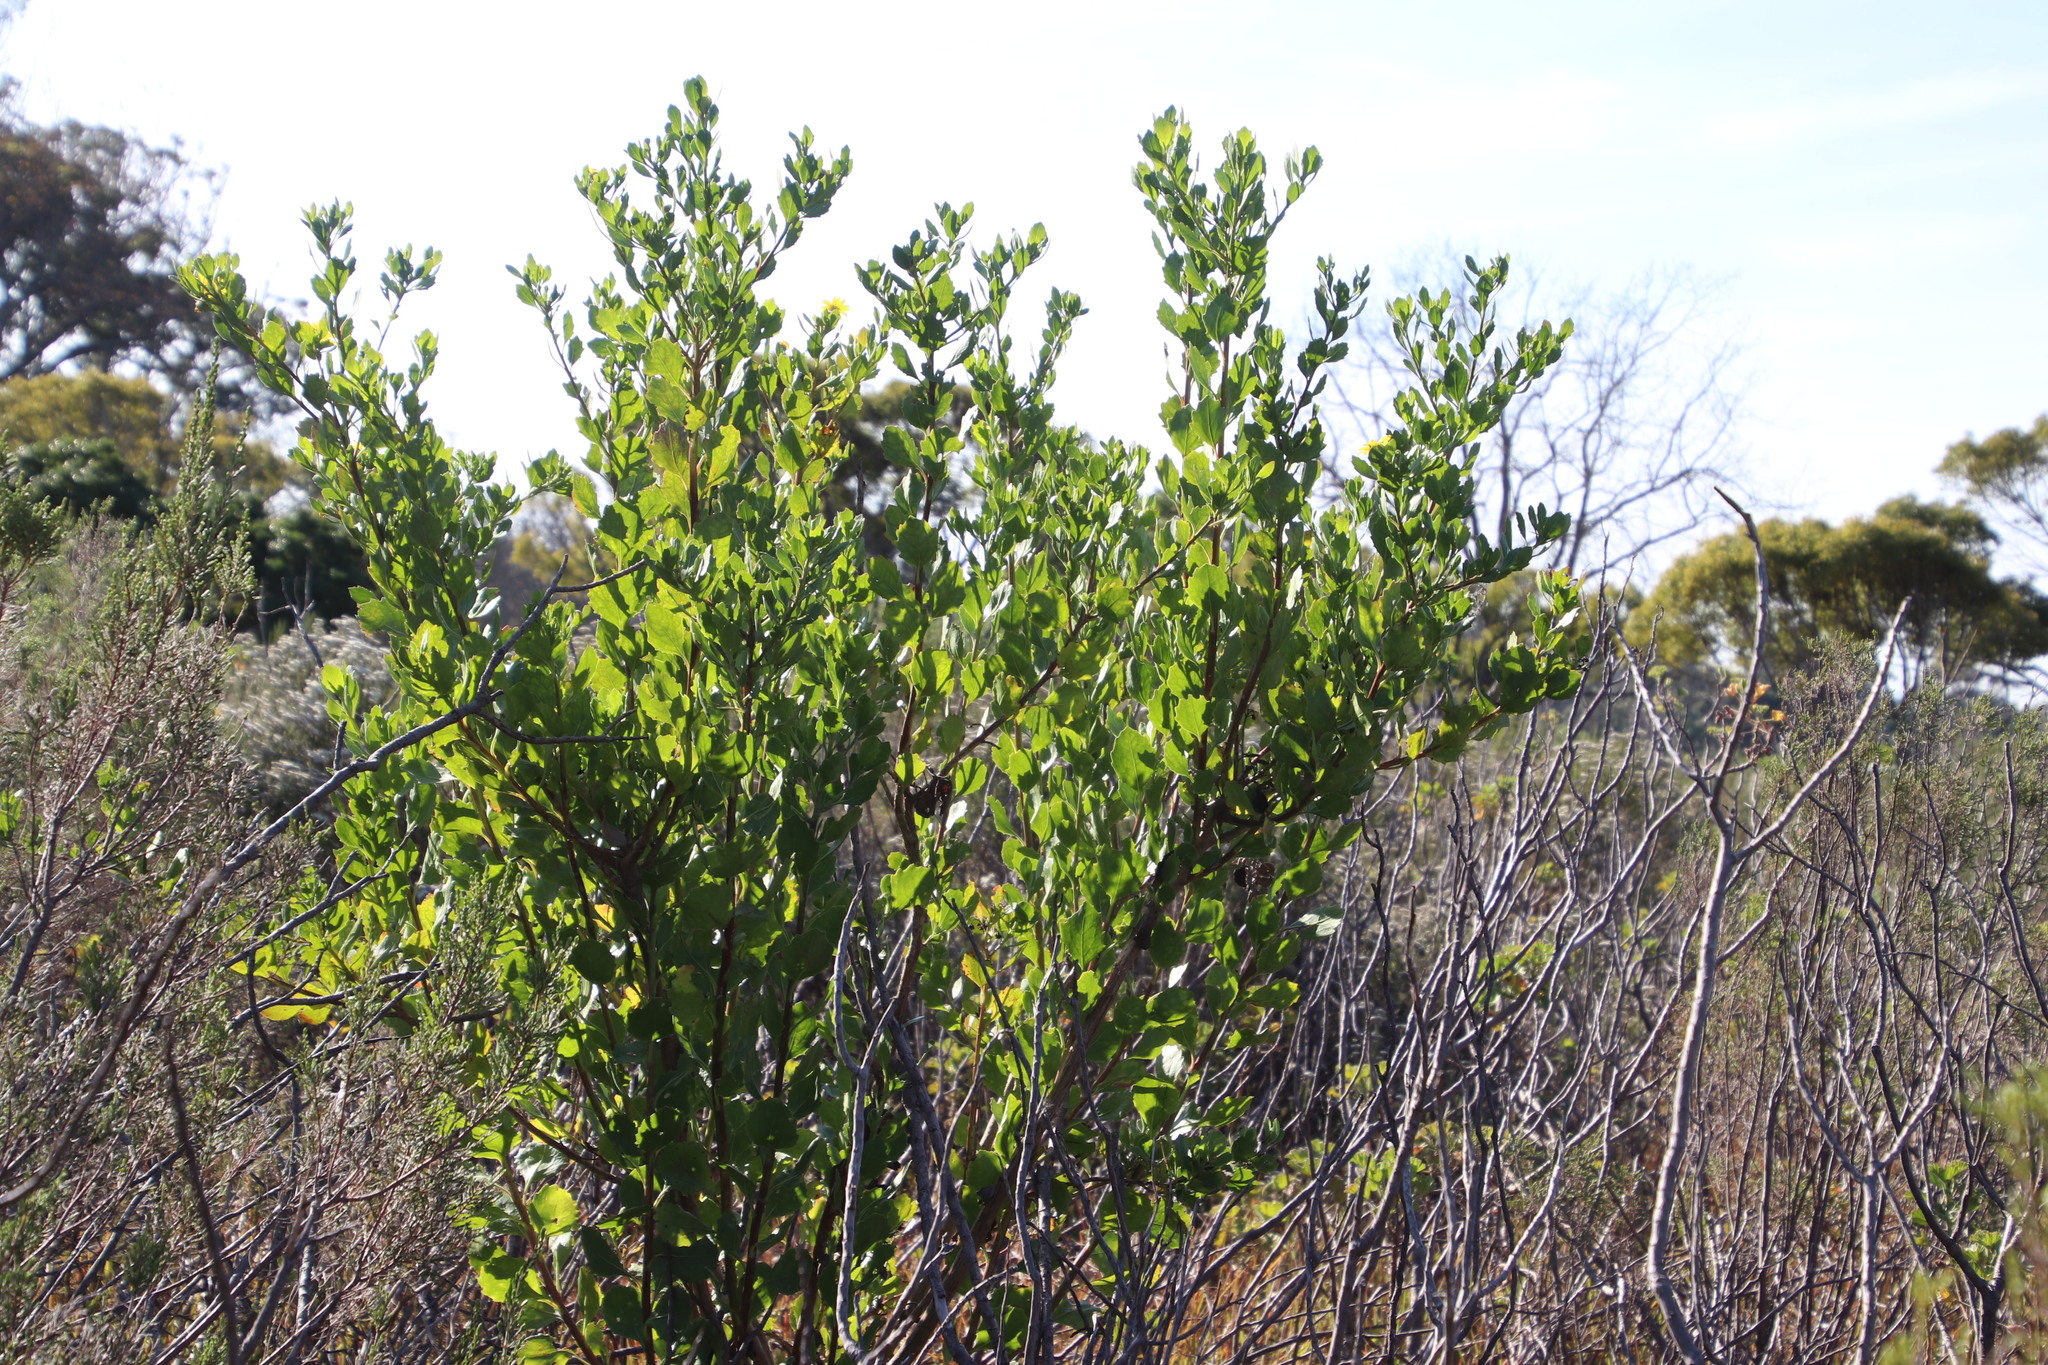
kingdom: Plantae
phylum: Tracheophyta
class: Magnoliopsida
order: Asterales
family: Asteraceae
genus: Osteospermum
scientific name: Osteospermum moniliferum
